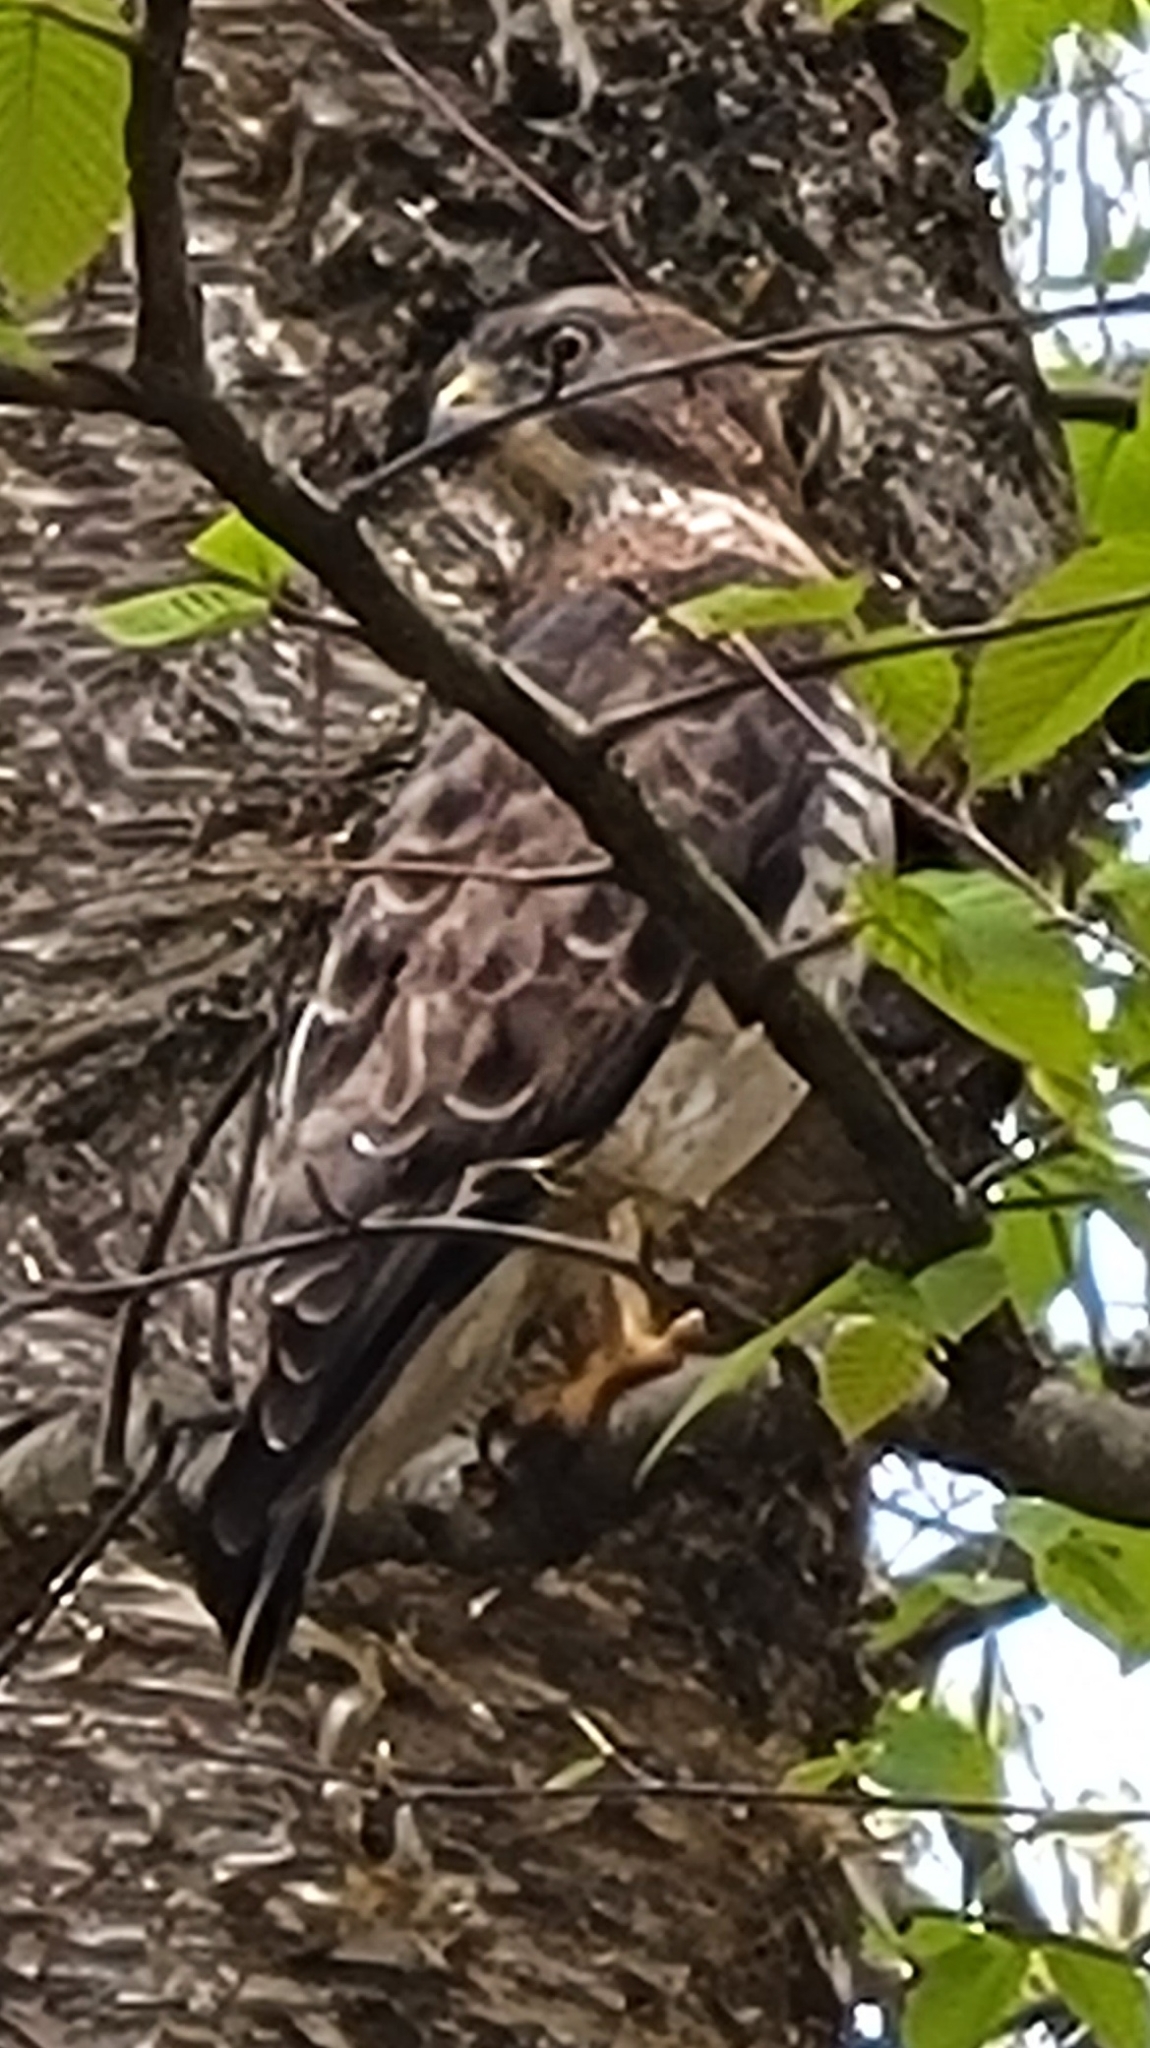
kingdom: Animalia
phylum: Chordata
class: Aves
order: Accipitriformes
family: Accipitridae
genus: Buteo
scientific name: Buteo platypterus
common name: Broad-winged hawk
